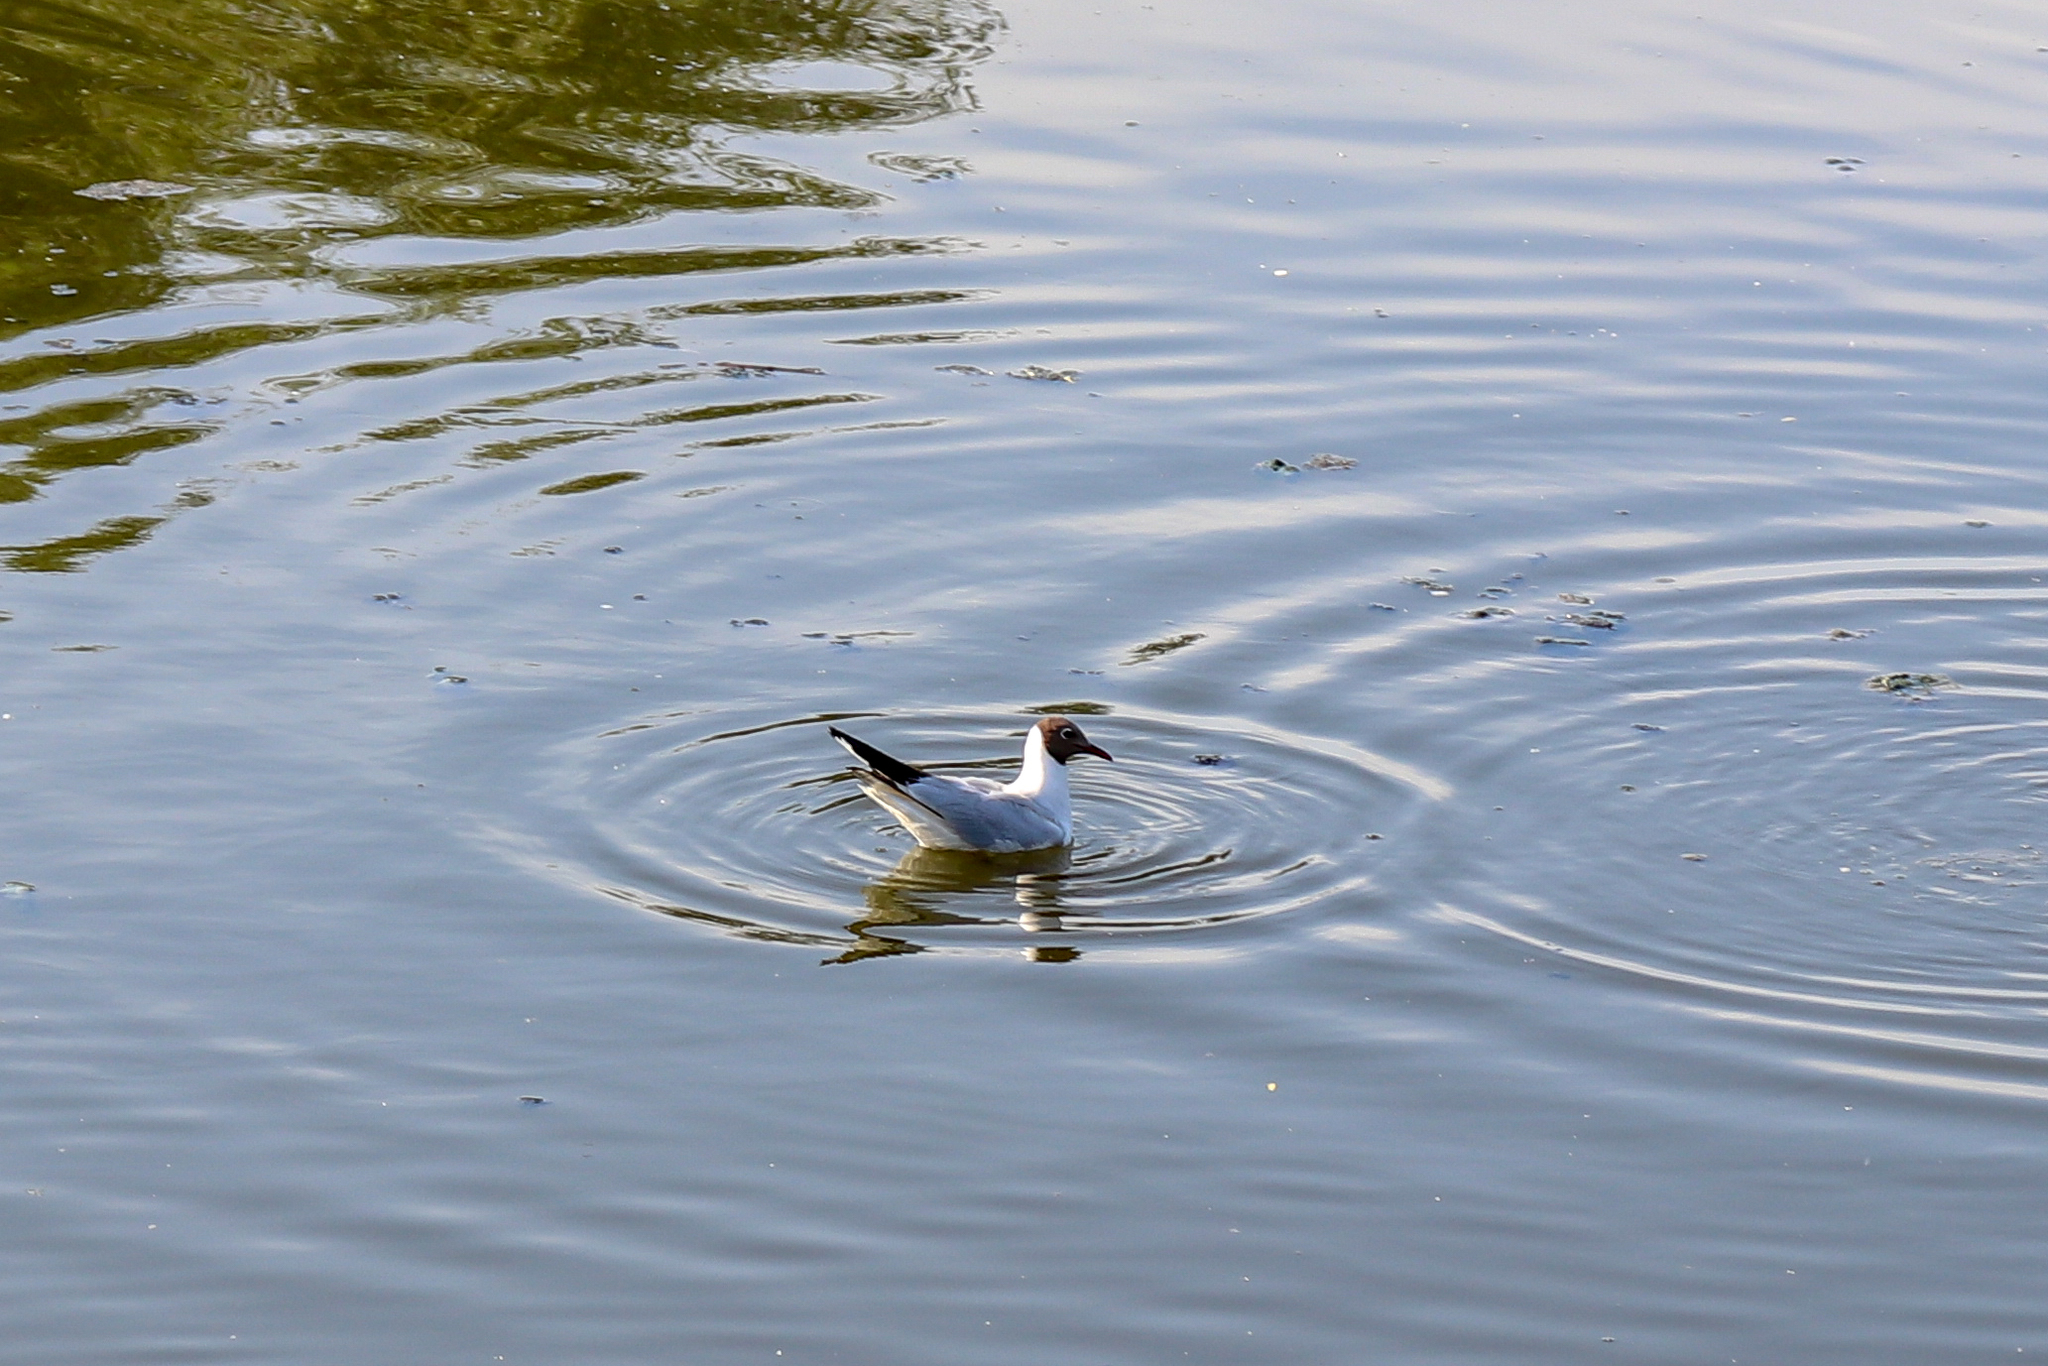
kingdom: Animalia
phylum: Chordata
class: Aves
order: Charadriiformes
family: Laridae
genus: Chroicocephalus
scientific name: Chroicocephalus ridibundus
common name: Black-headed gull
